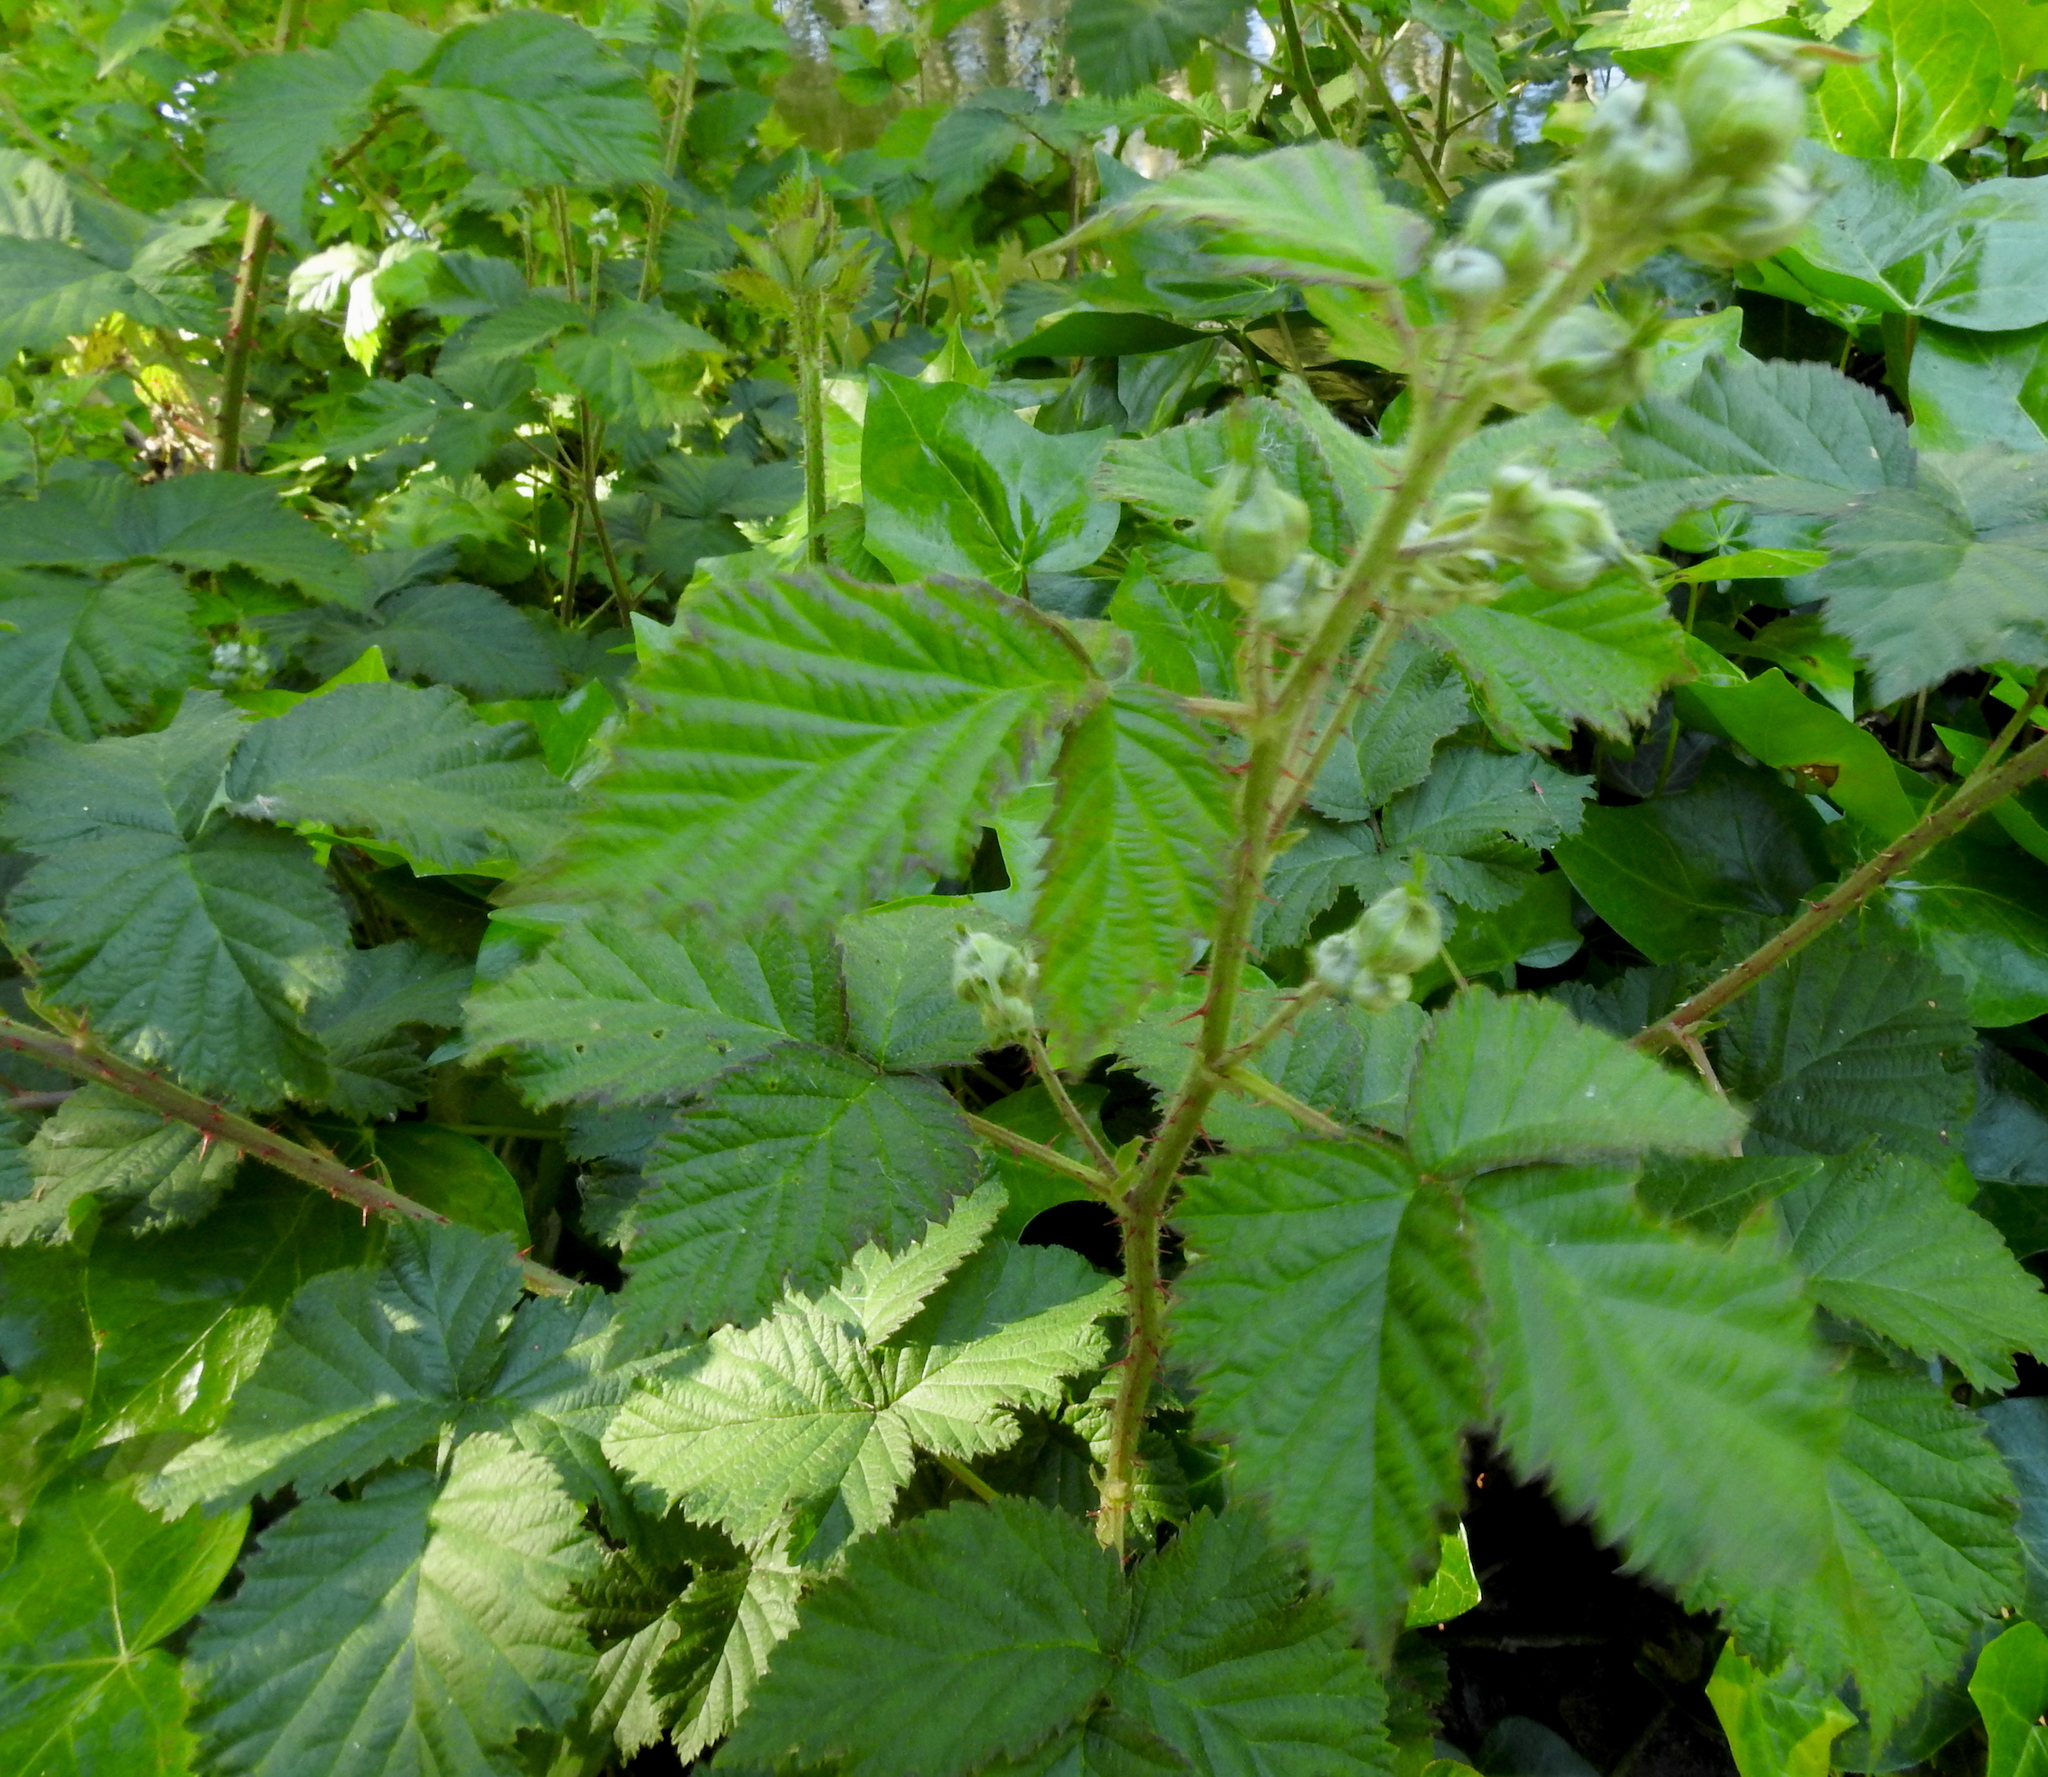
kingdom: Plantae
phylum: Tracheophyta
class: Magnoliopsida
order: Rosales
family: Rosaceae
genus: Rubus
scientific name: Rubus ursinus
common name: Pacific blackberry
